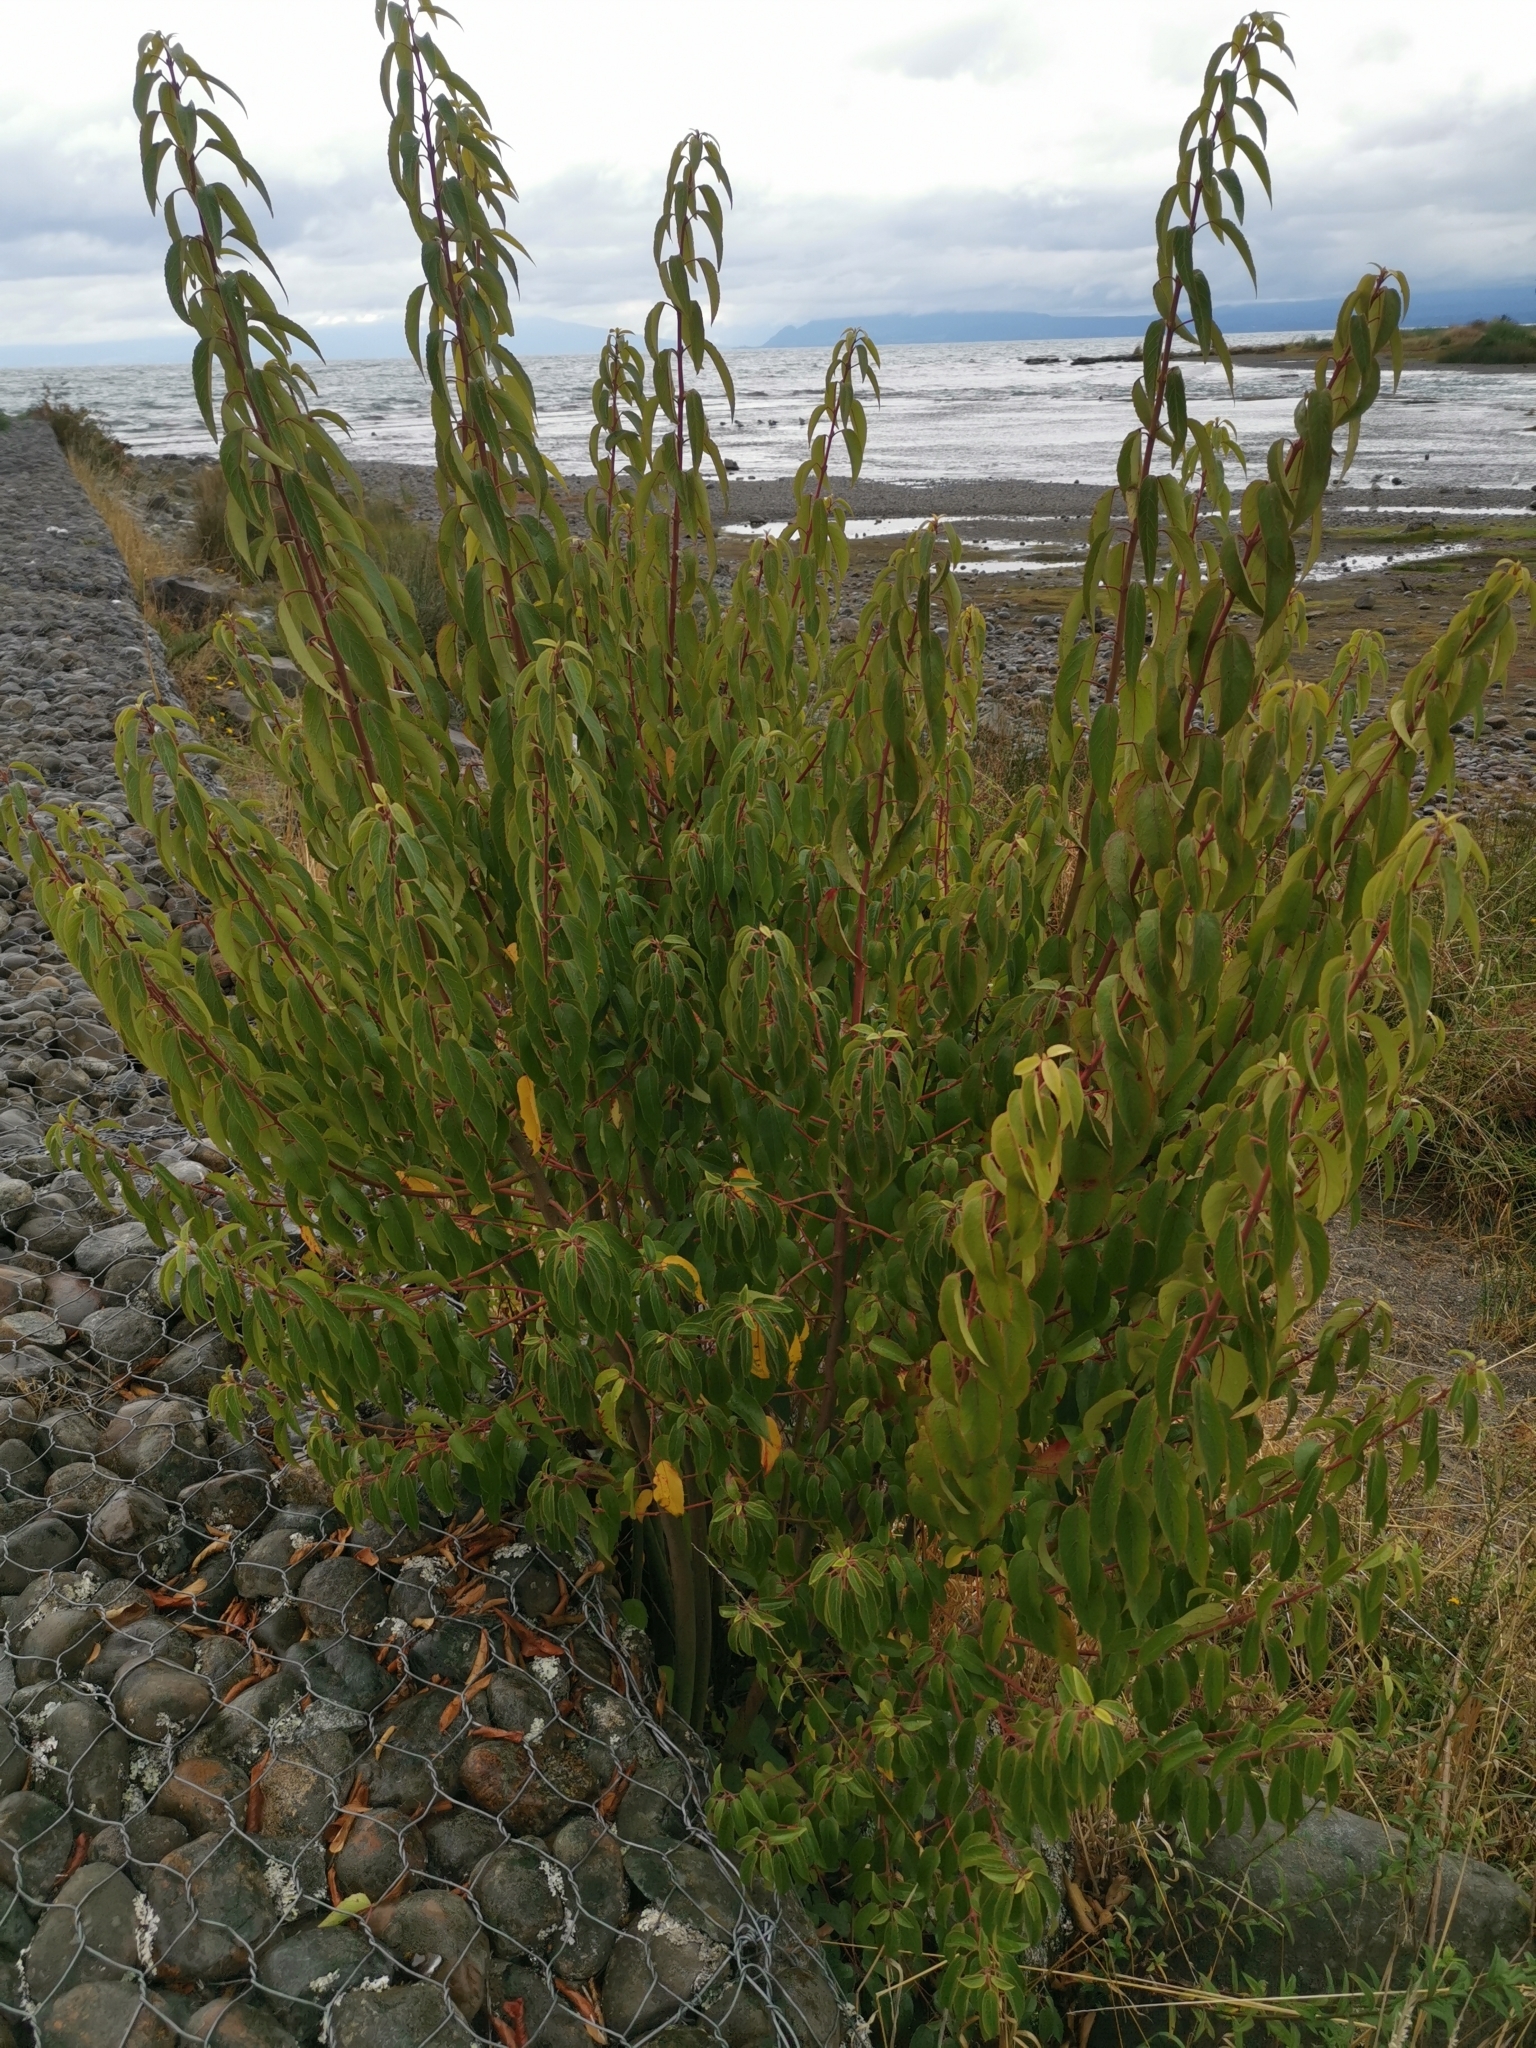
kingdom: Plantae
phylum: Tracheophyta
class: Magnoliopsida
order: Oxalidales
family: Elaeocarpaceae
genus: Aristotelia
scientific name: Aristotelia chilensis
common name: Maquei
